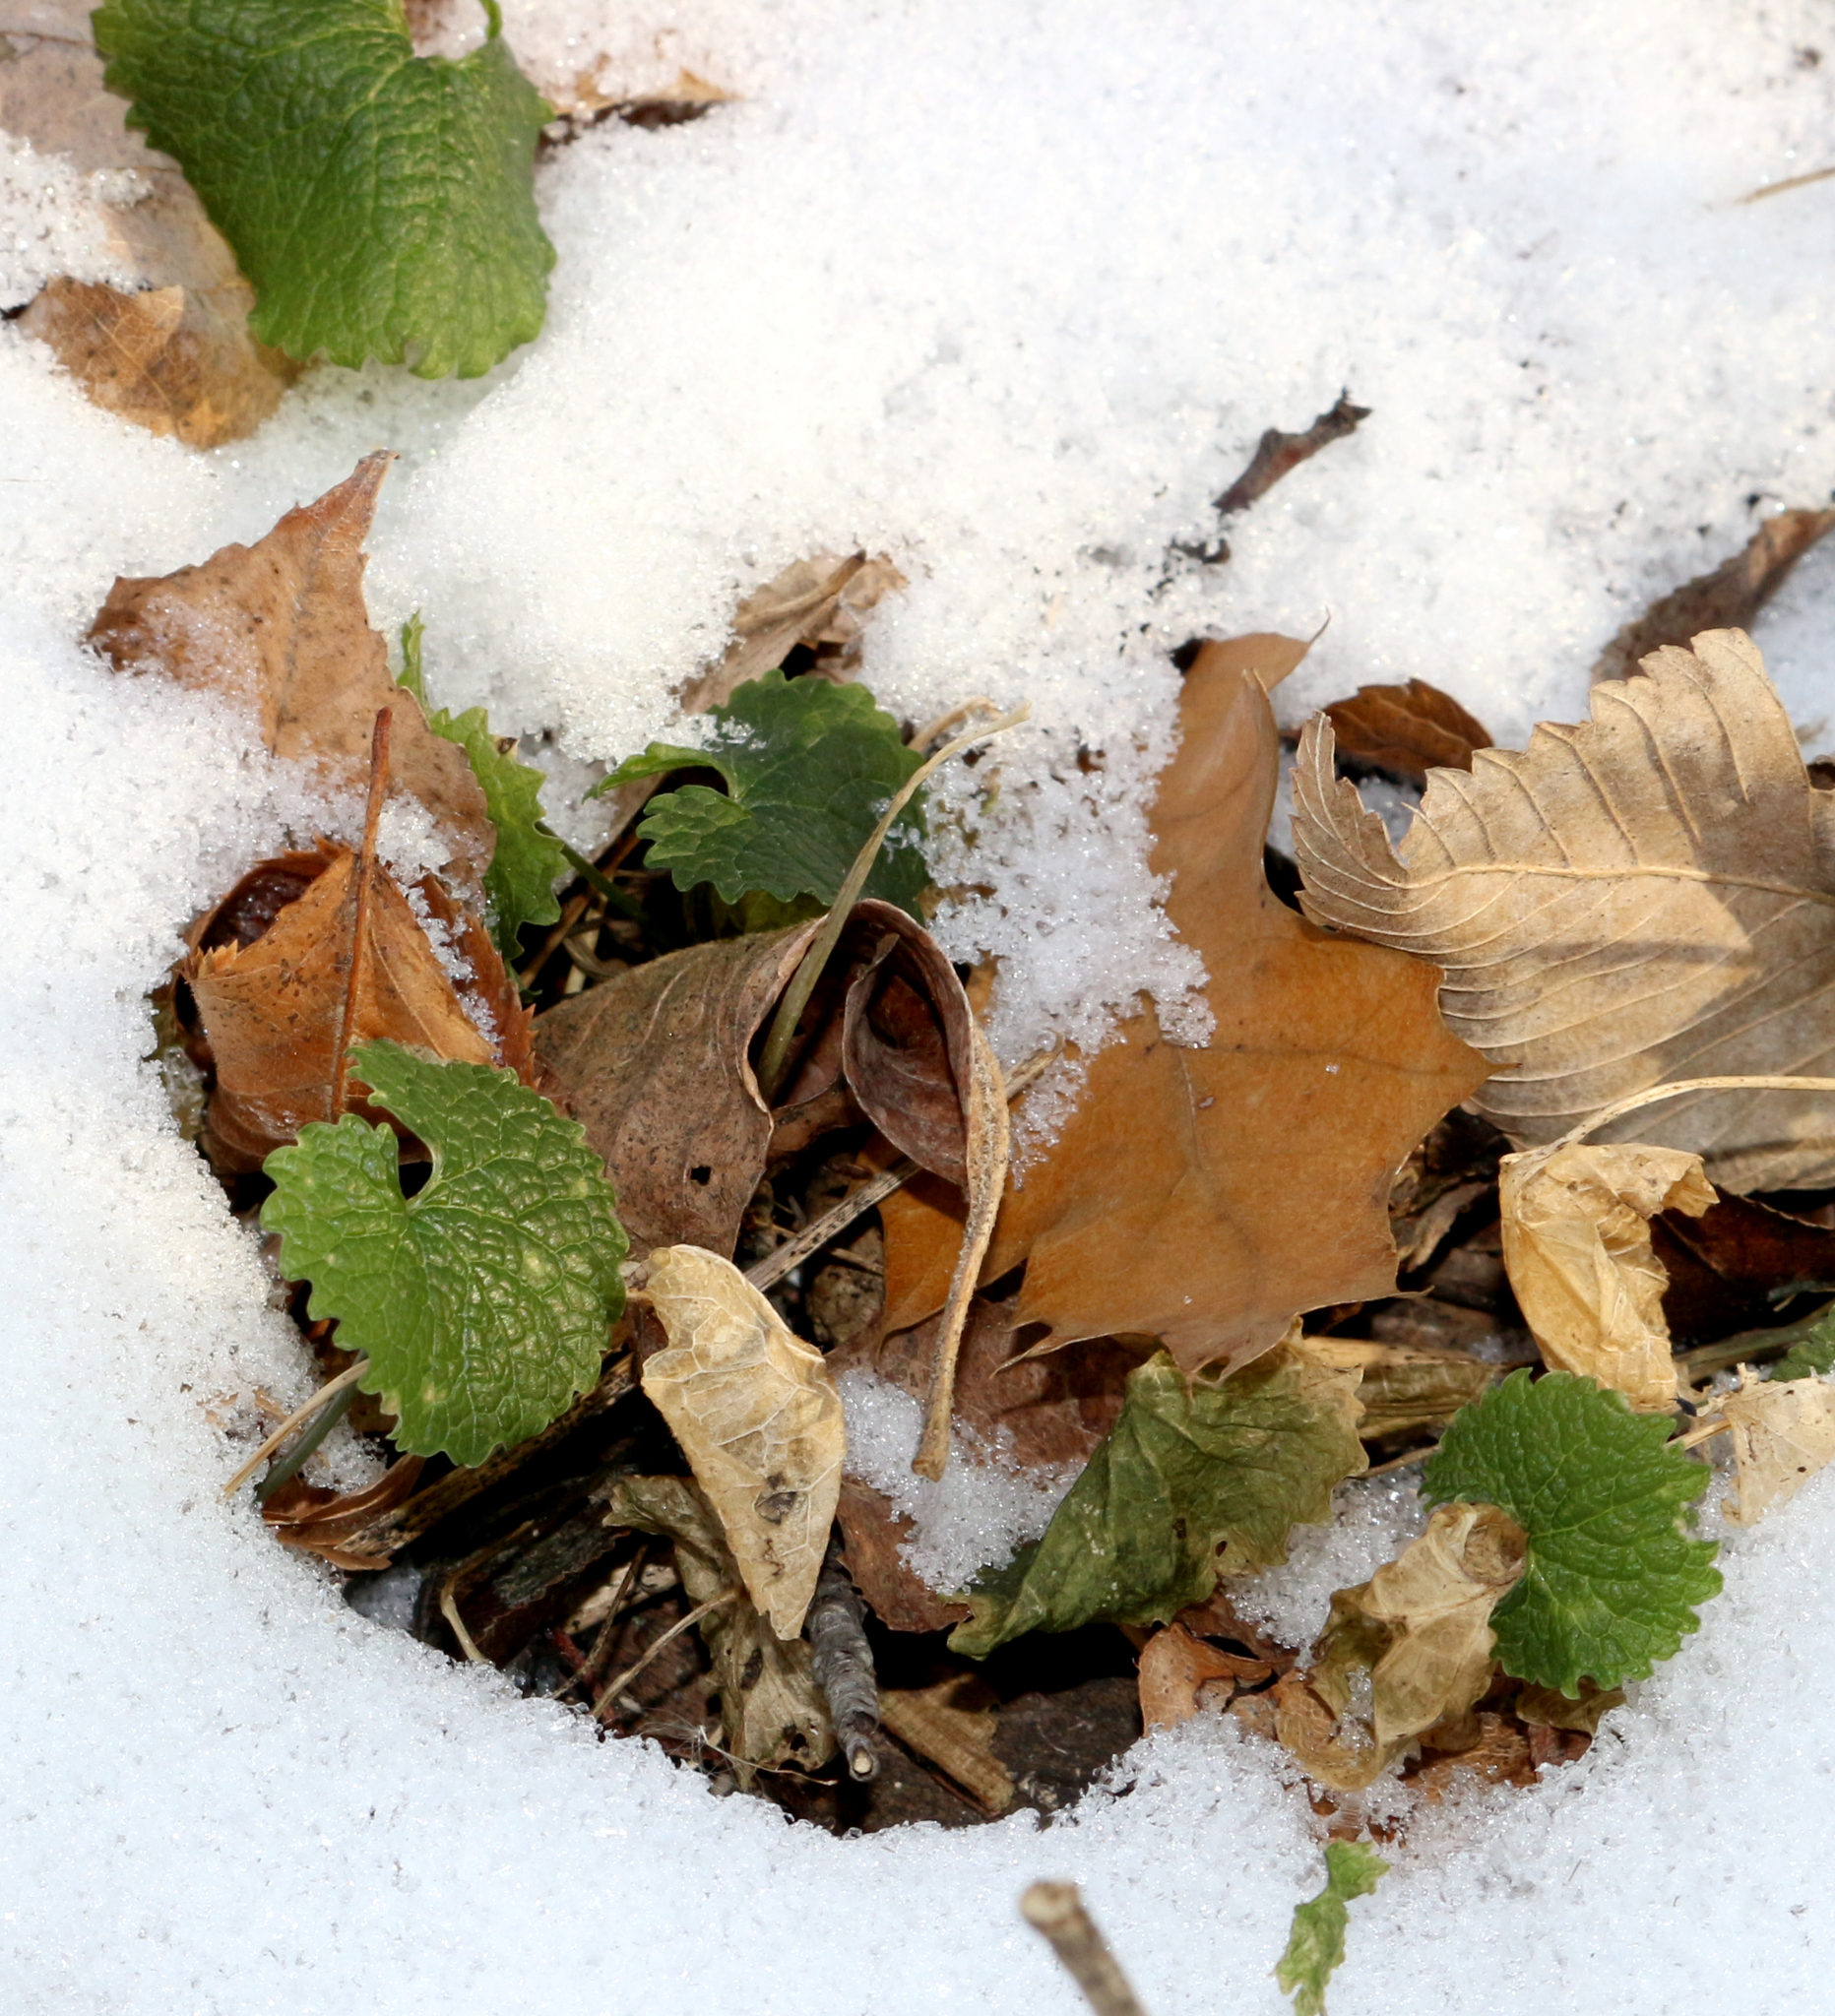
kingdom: Plantae
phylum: Tracheophyta
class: Magnoliopsida
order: Brassicales
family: Brassicaceae
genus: Alliaria
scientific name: Alliaria petiolata
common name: Garlic mustard
